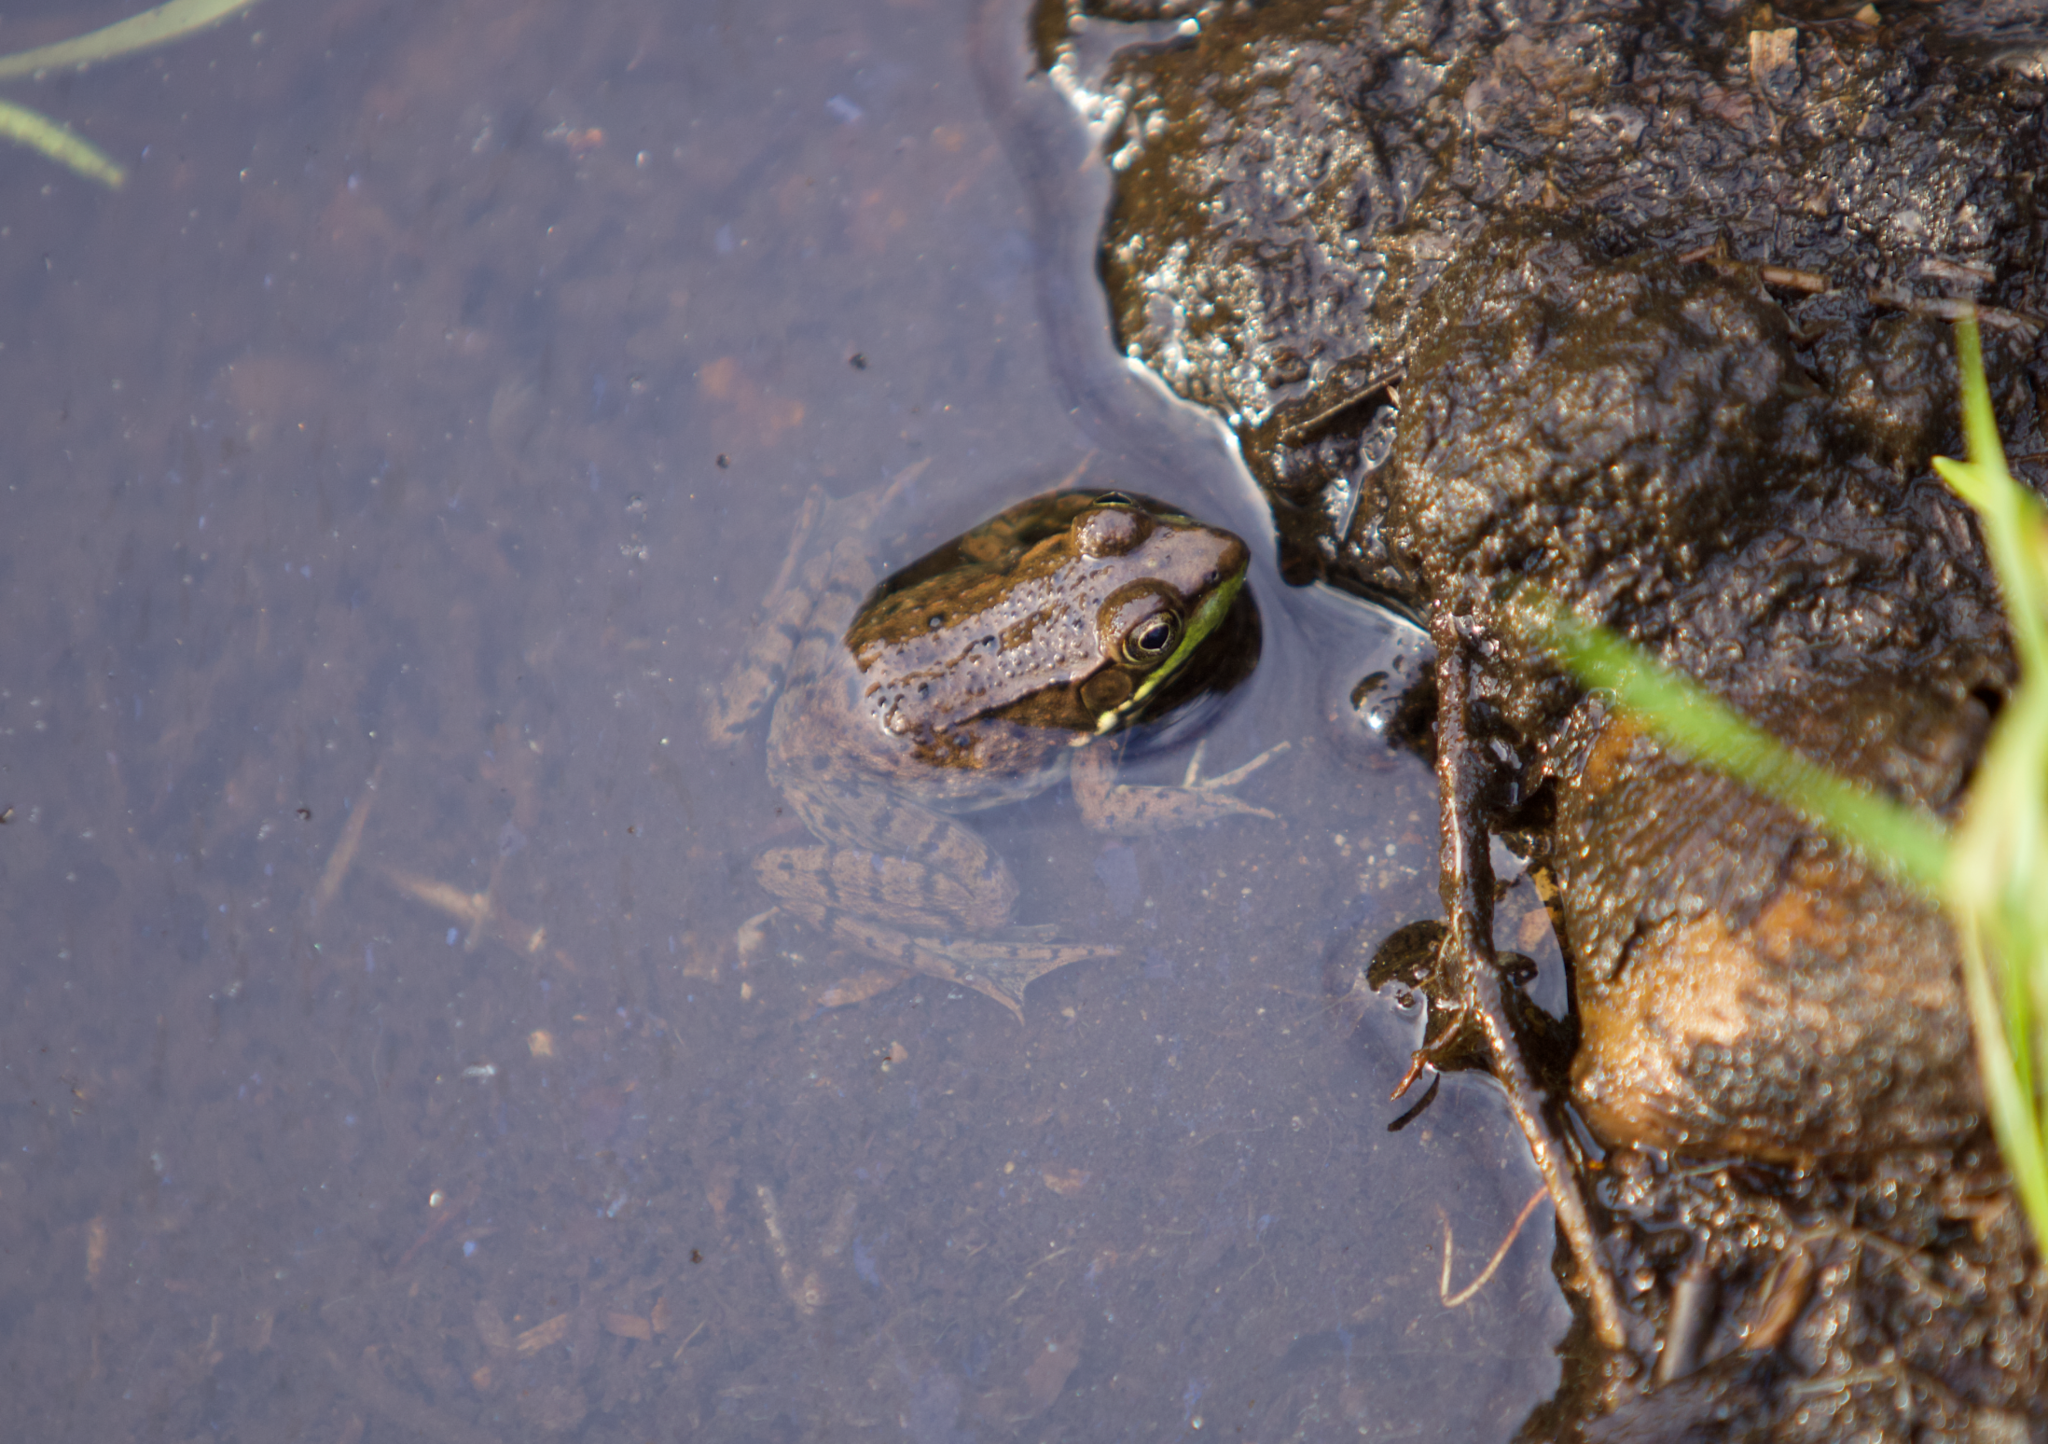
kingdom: Animalia
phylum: Chordata
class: Amphibia
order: Anura
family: Ranidae
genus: Lithobates
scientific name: Lithobates clamitans
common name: Green frog
